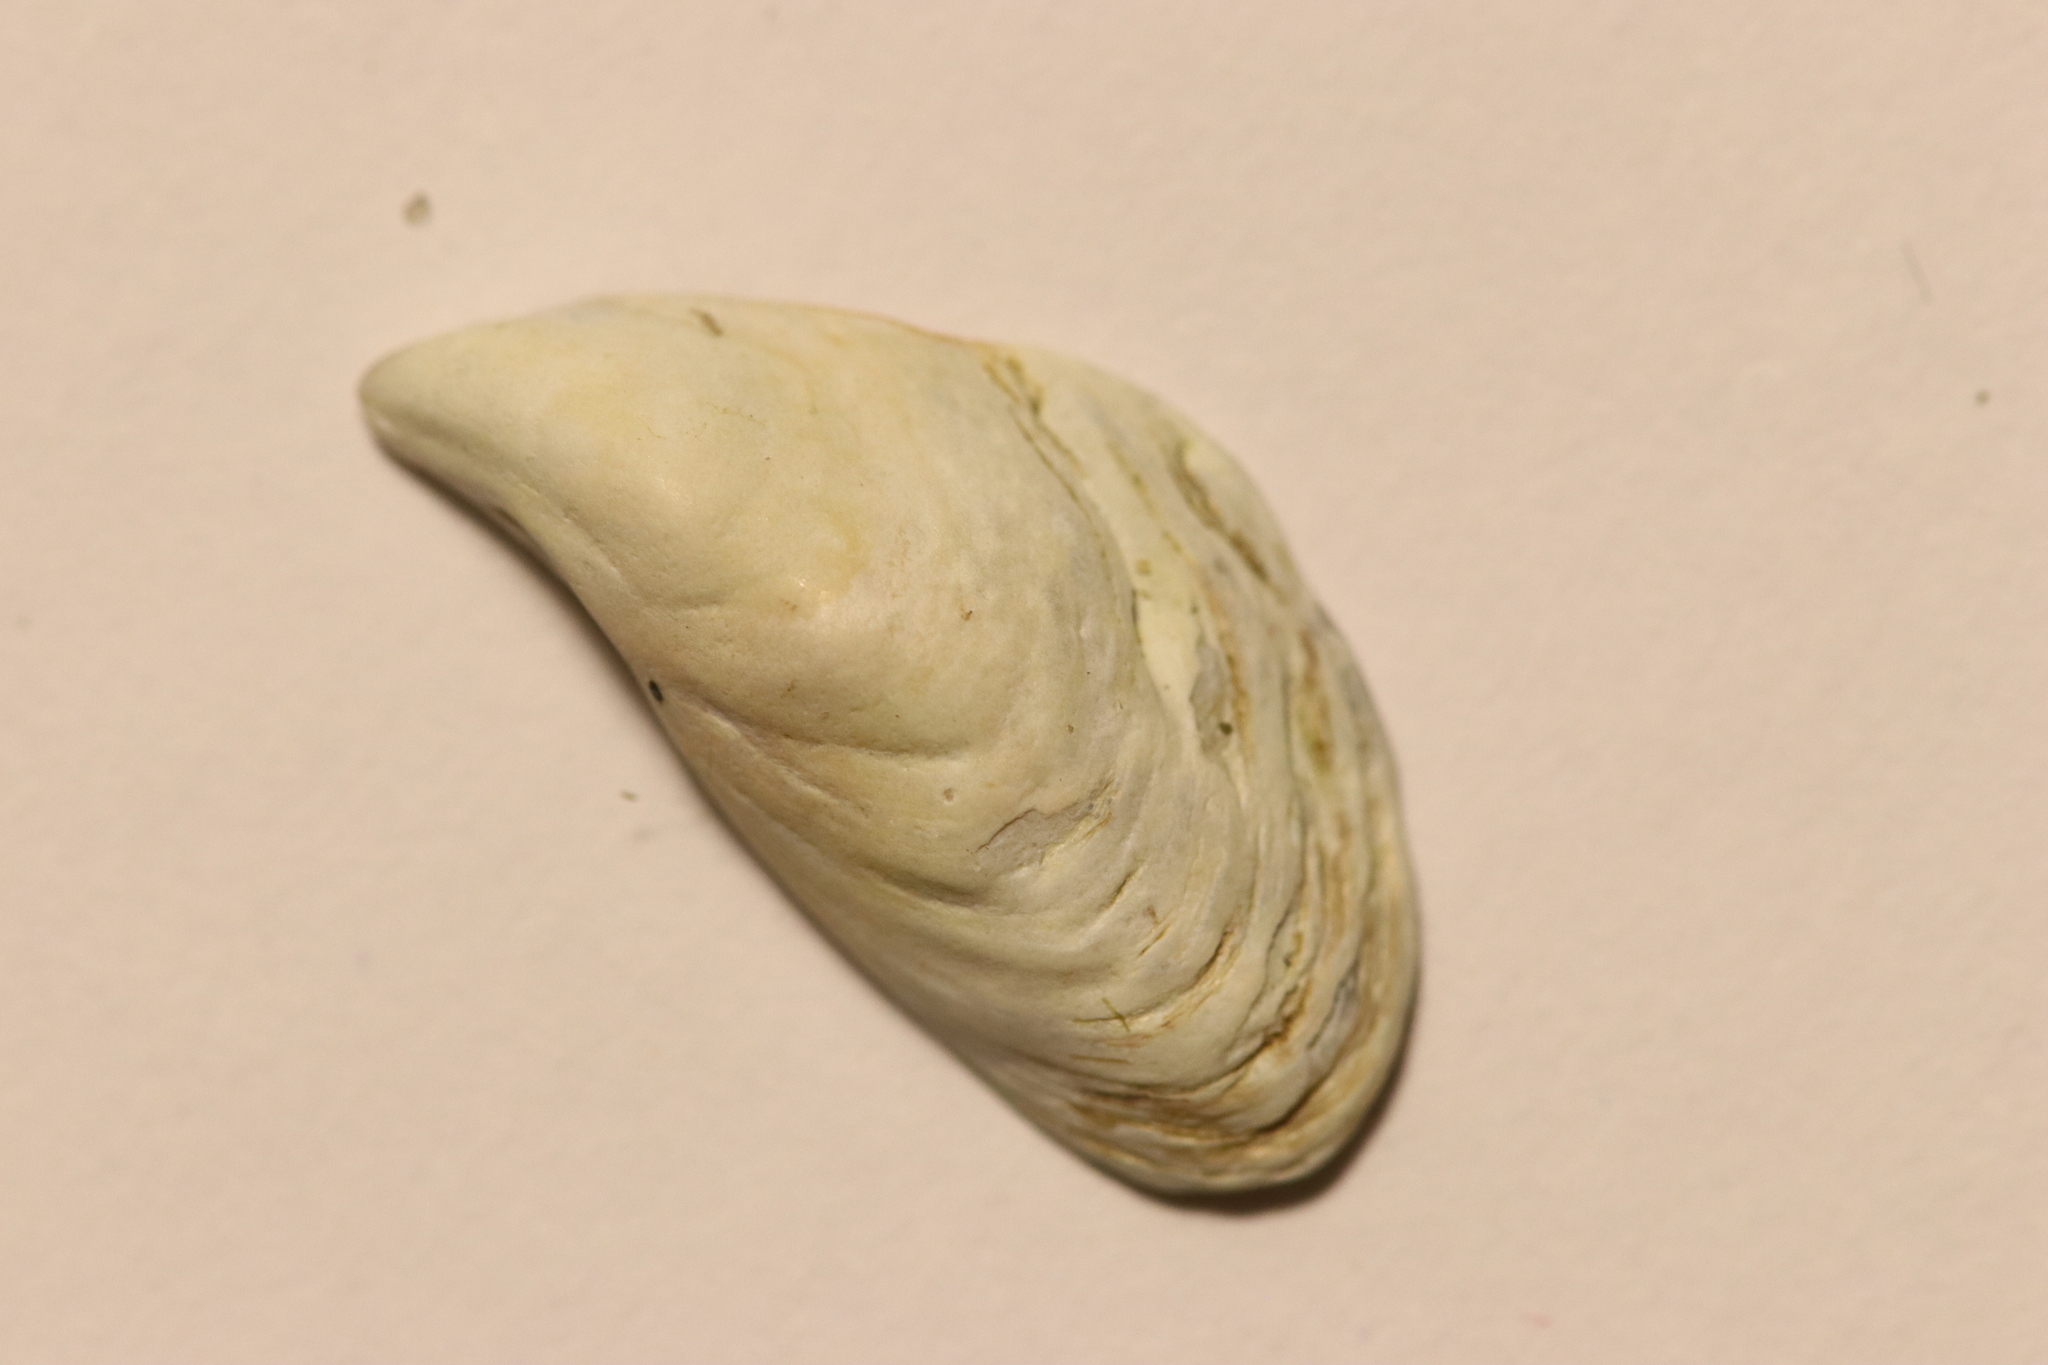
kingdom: Animalia
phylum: Mollusca
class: Bivalvia
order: Myida
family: Dreissenidae
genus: Dreissena
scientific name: Dreissena bugensis
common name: Quagga mussel
